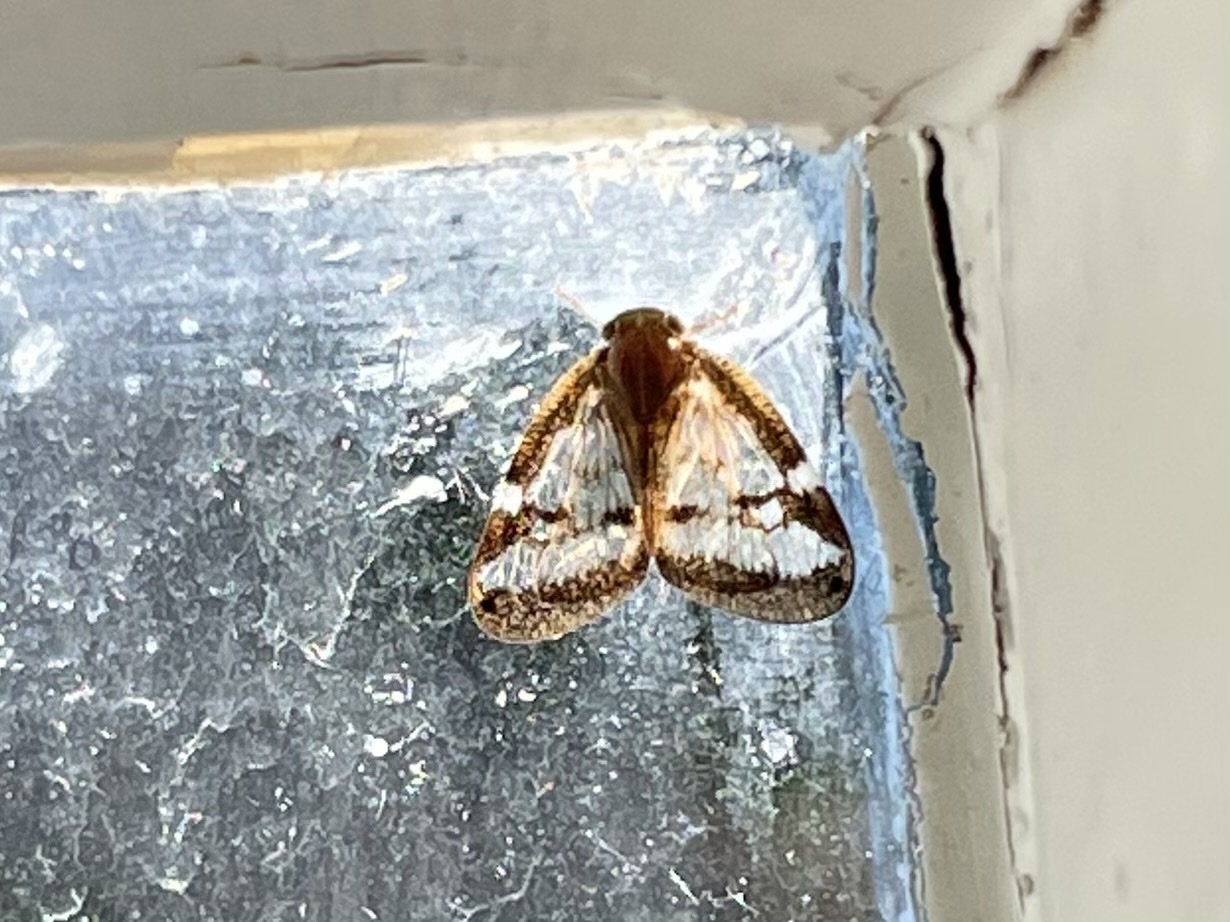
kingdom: Animalia
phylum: Arthropoda
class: Insecta
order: Hemiptera
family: Ricaniidae
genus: Scolypopa
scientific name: Scolypopa australis
